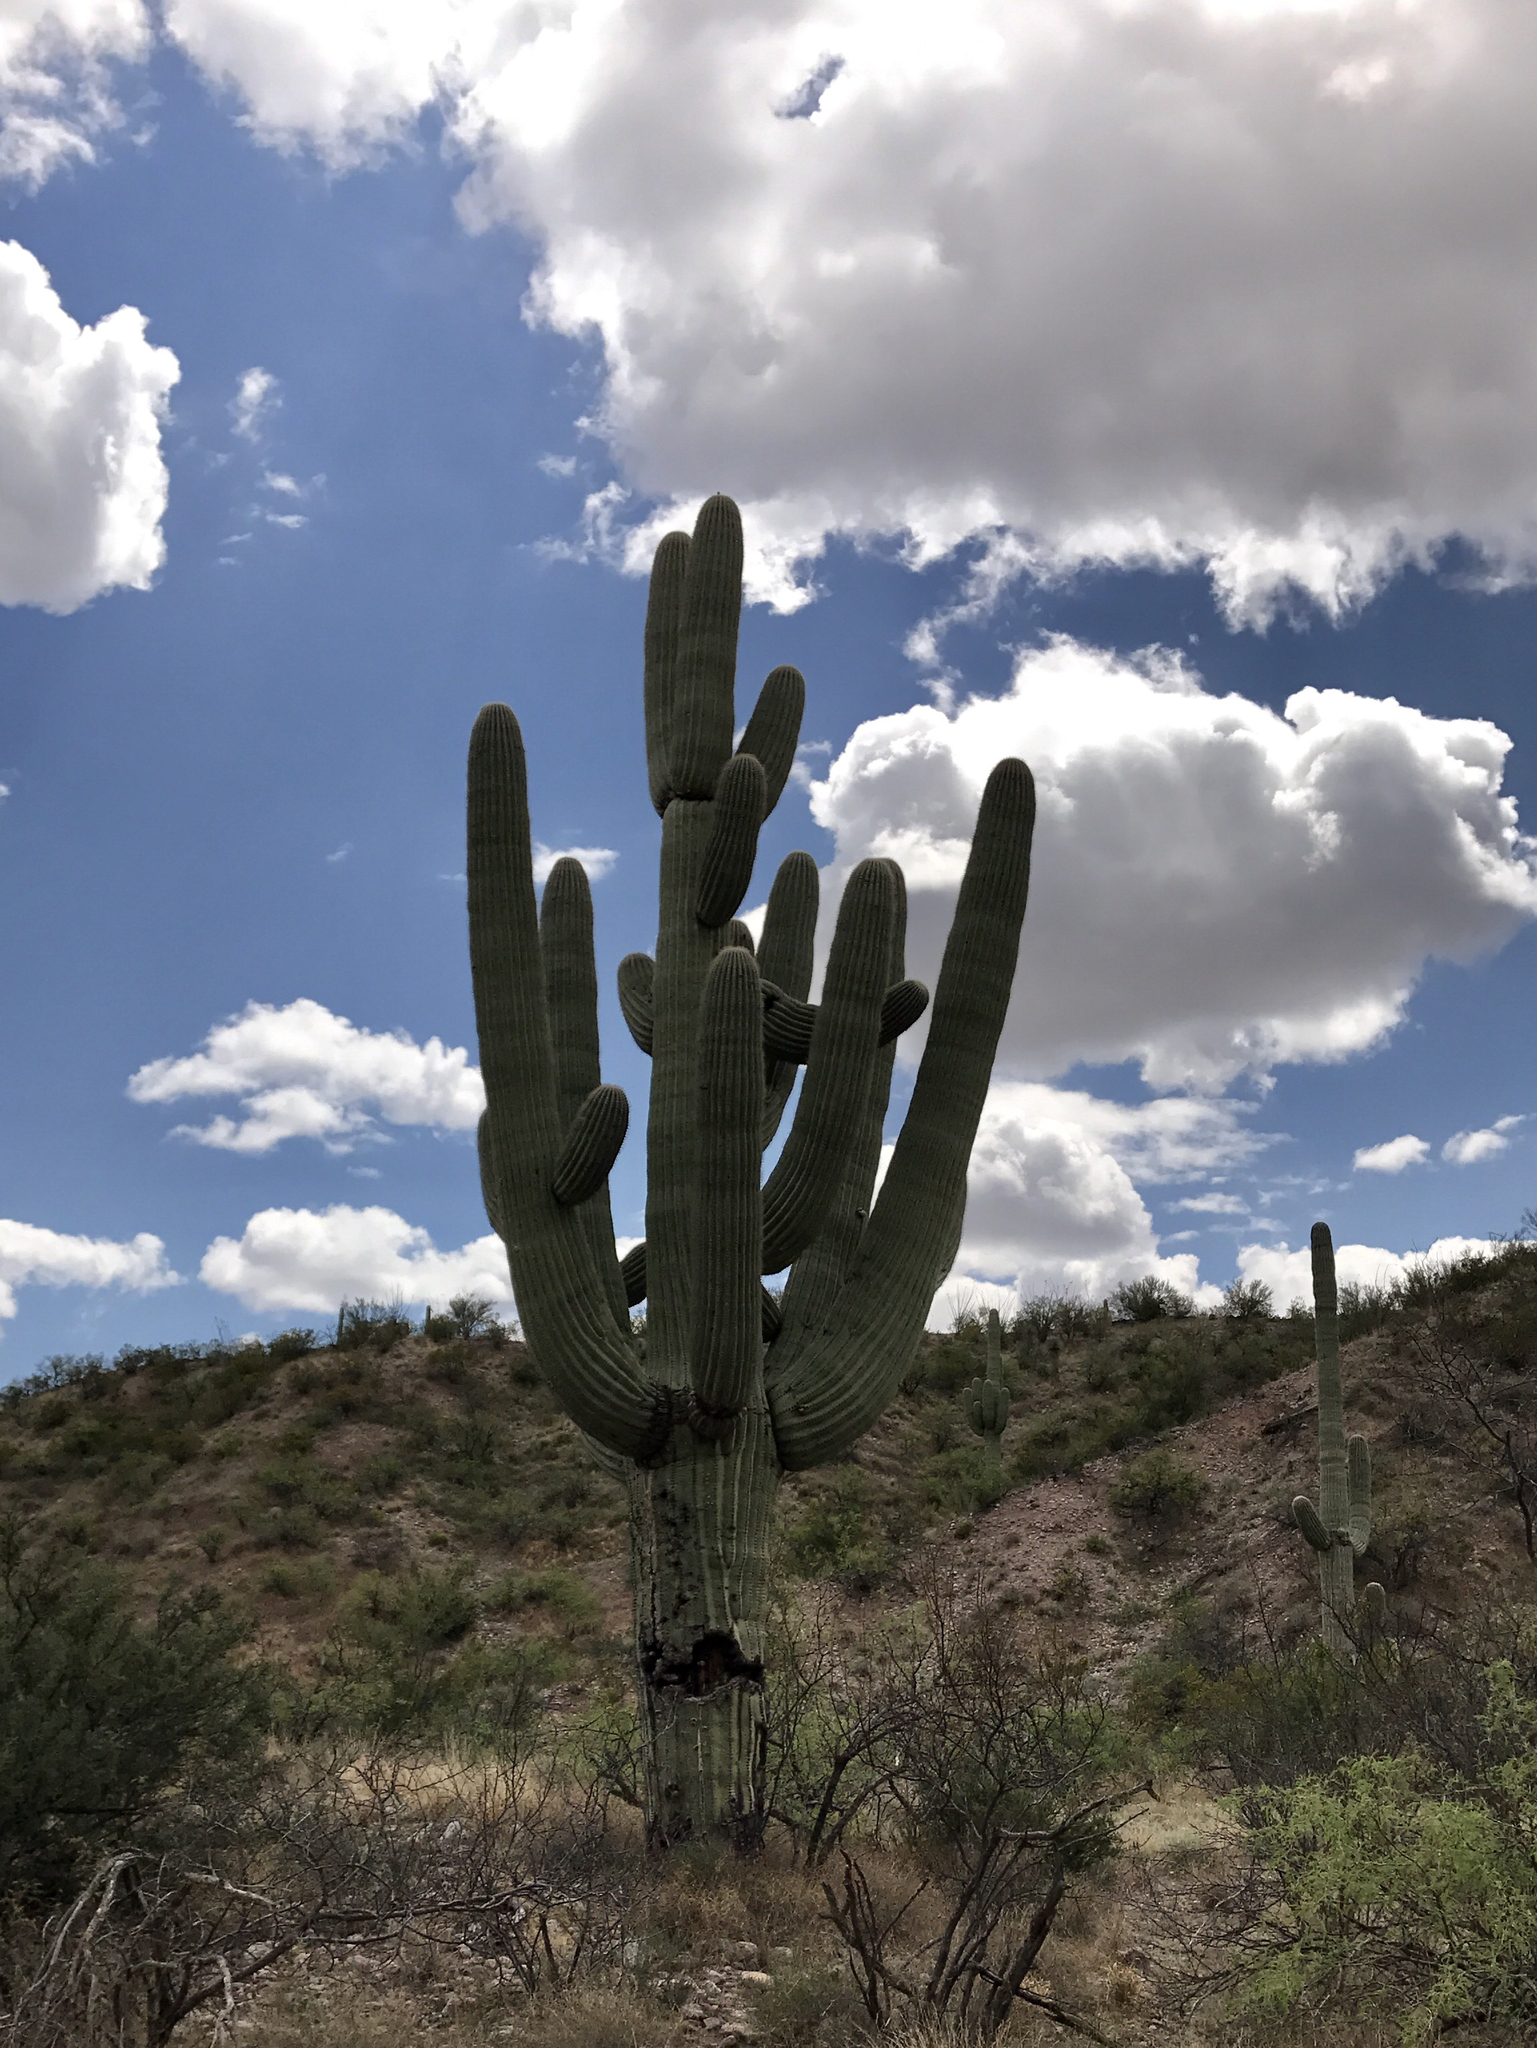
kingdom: Plantae
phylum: Tracheophyta
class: Magnoliopsida
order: Caryophyllales
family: Cactaceae
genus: Carnegiea
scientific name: Carnegiea gigantea
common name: Saguaro
